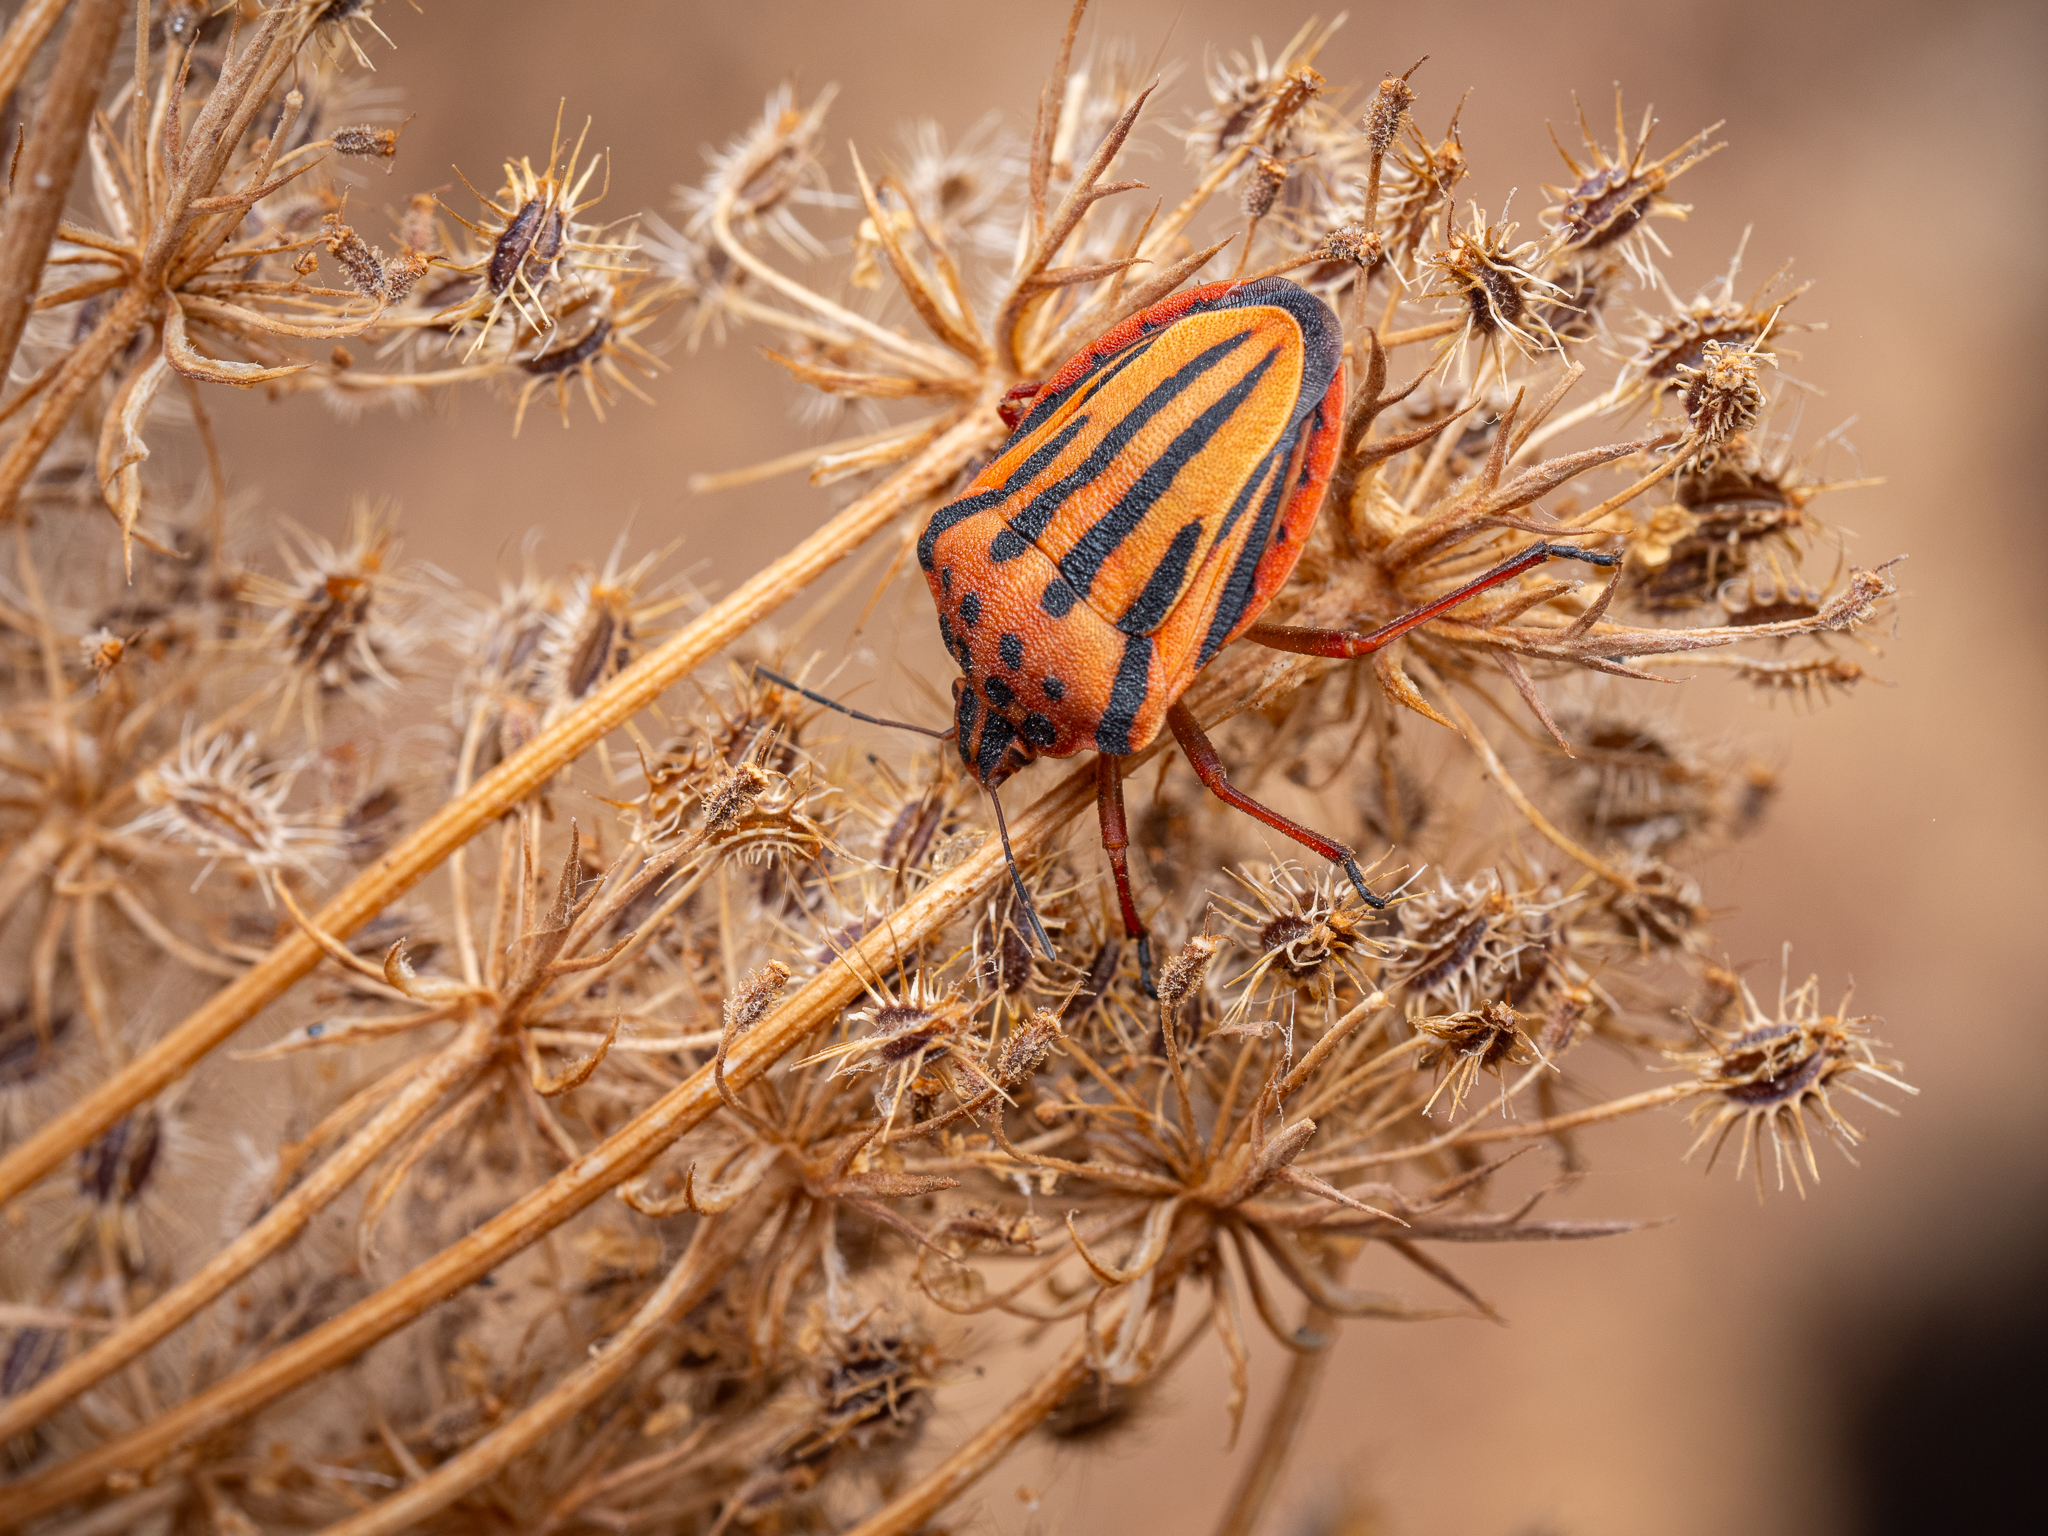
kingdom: Animalia
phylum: Arthropoda
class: Insecta
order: Hemiptera
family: Pentatomidae
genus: Graphosoma
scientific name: Graphosoma semipunctatum
